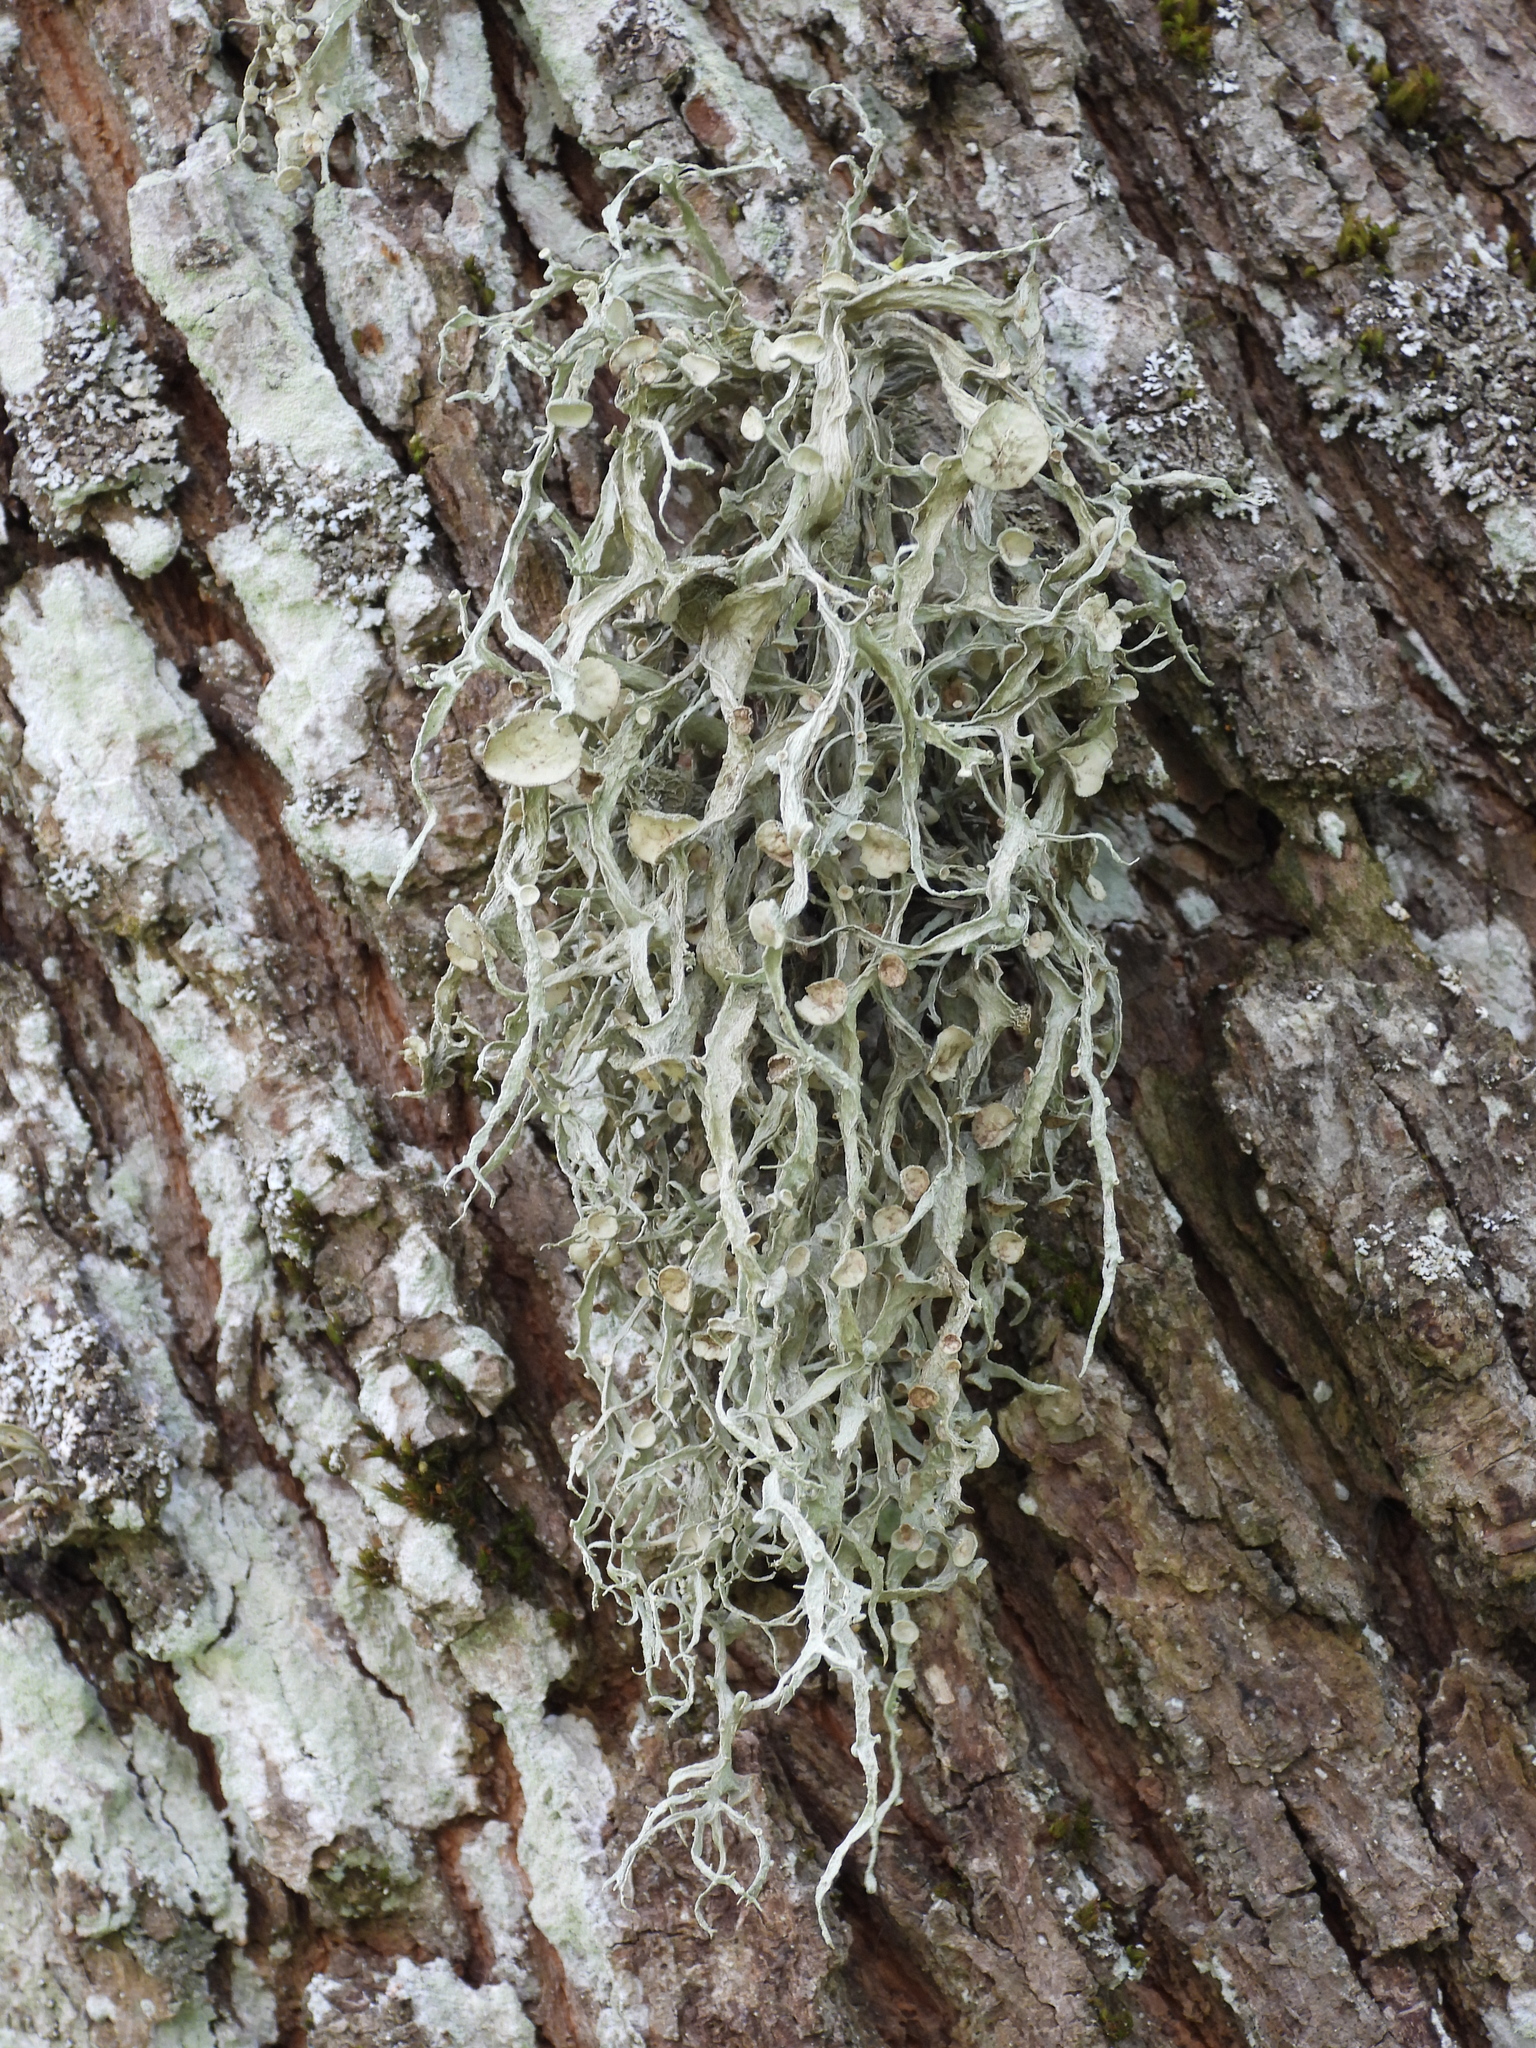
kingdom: Fungi
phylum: Ascomycota
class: Lecanoromycetes
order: Lecanorales
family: Ramalinaceae
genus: Ramalina
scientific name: Ramalina fraxinea
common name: Cartilage lichen
